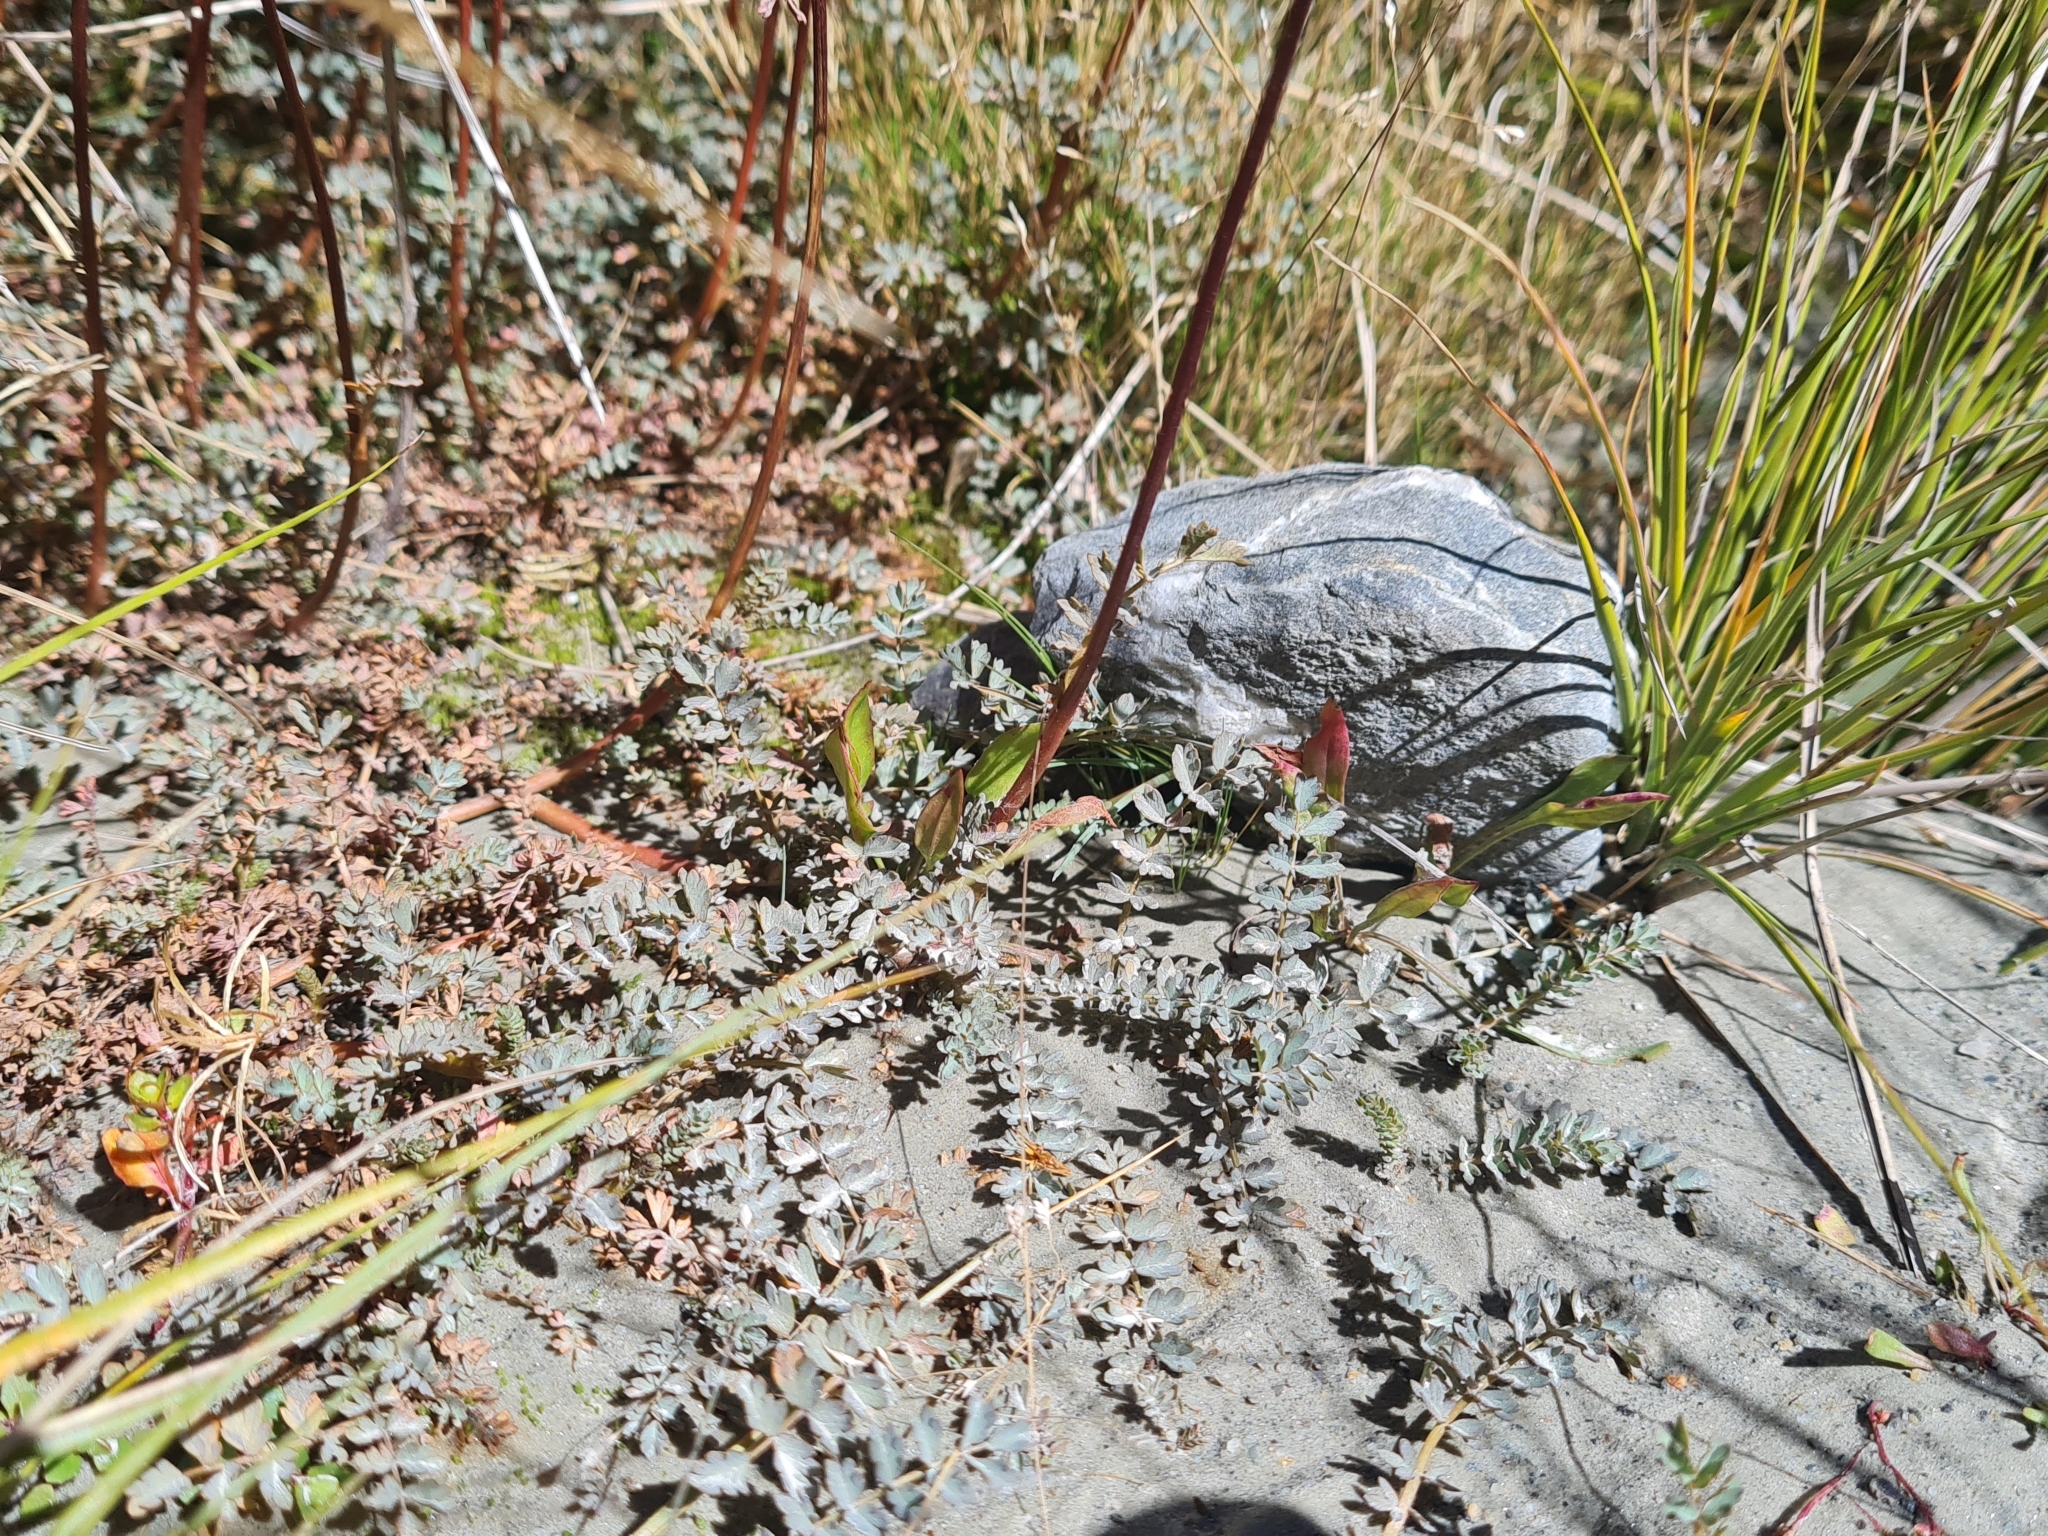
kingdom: Plantae
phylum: Tracheophyta
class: Magnoliopsida
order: Rosales
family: Rosaceae
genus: Acaena
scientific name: Acaena saccaticupula
